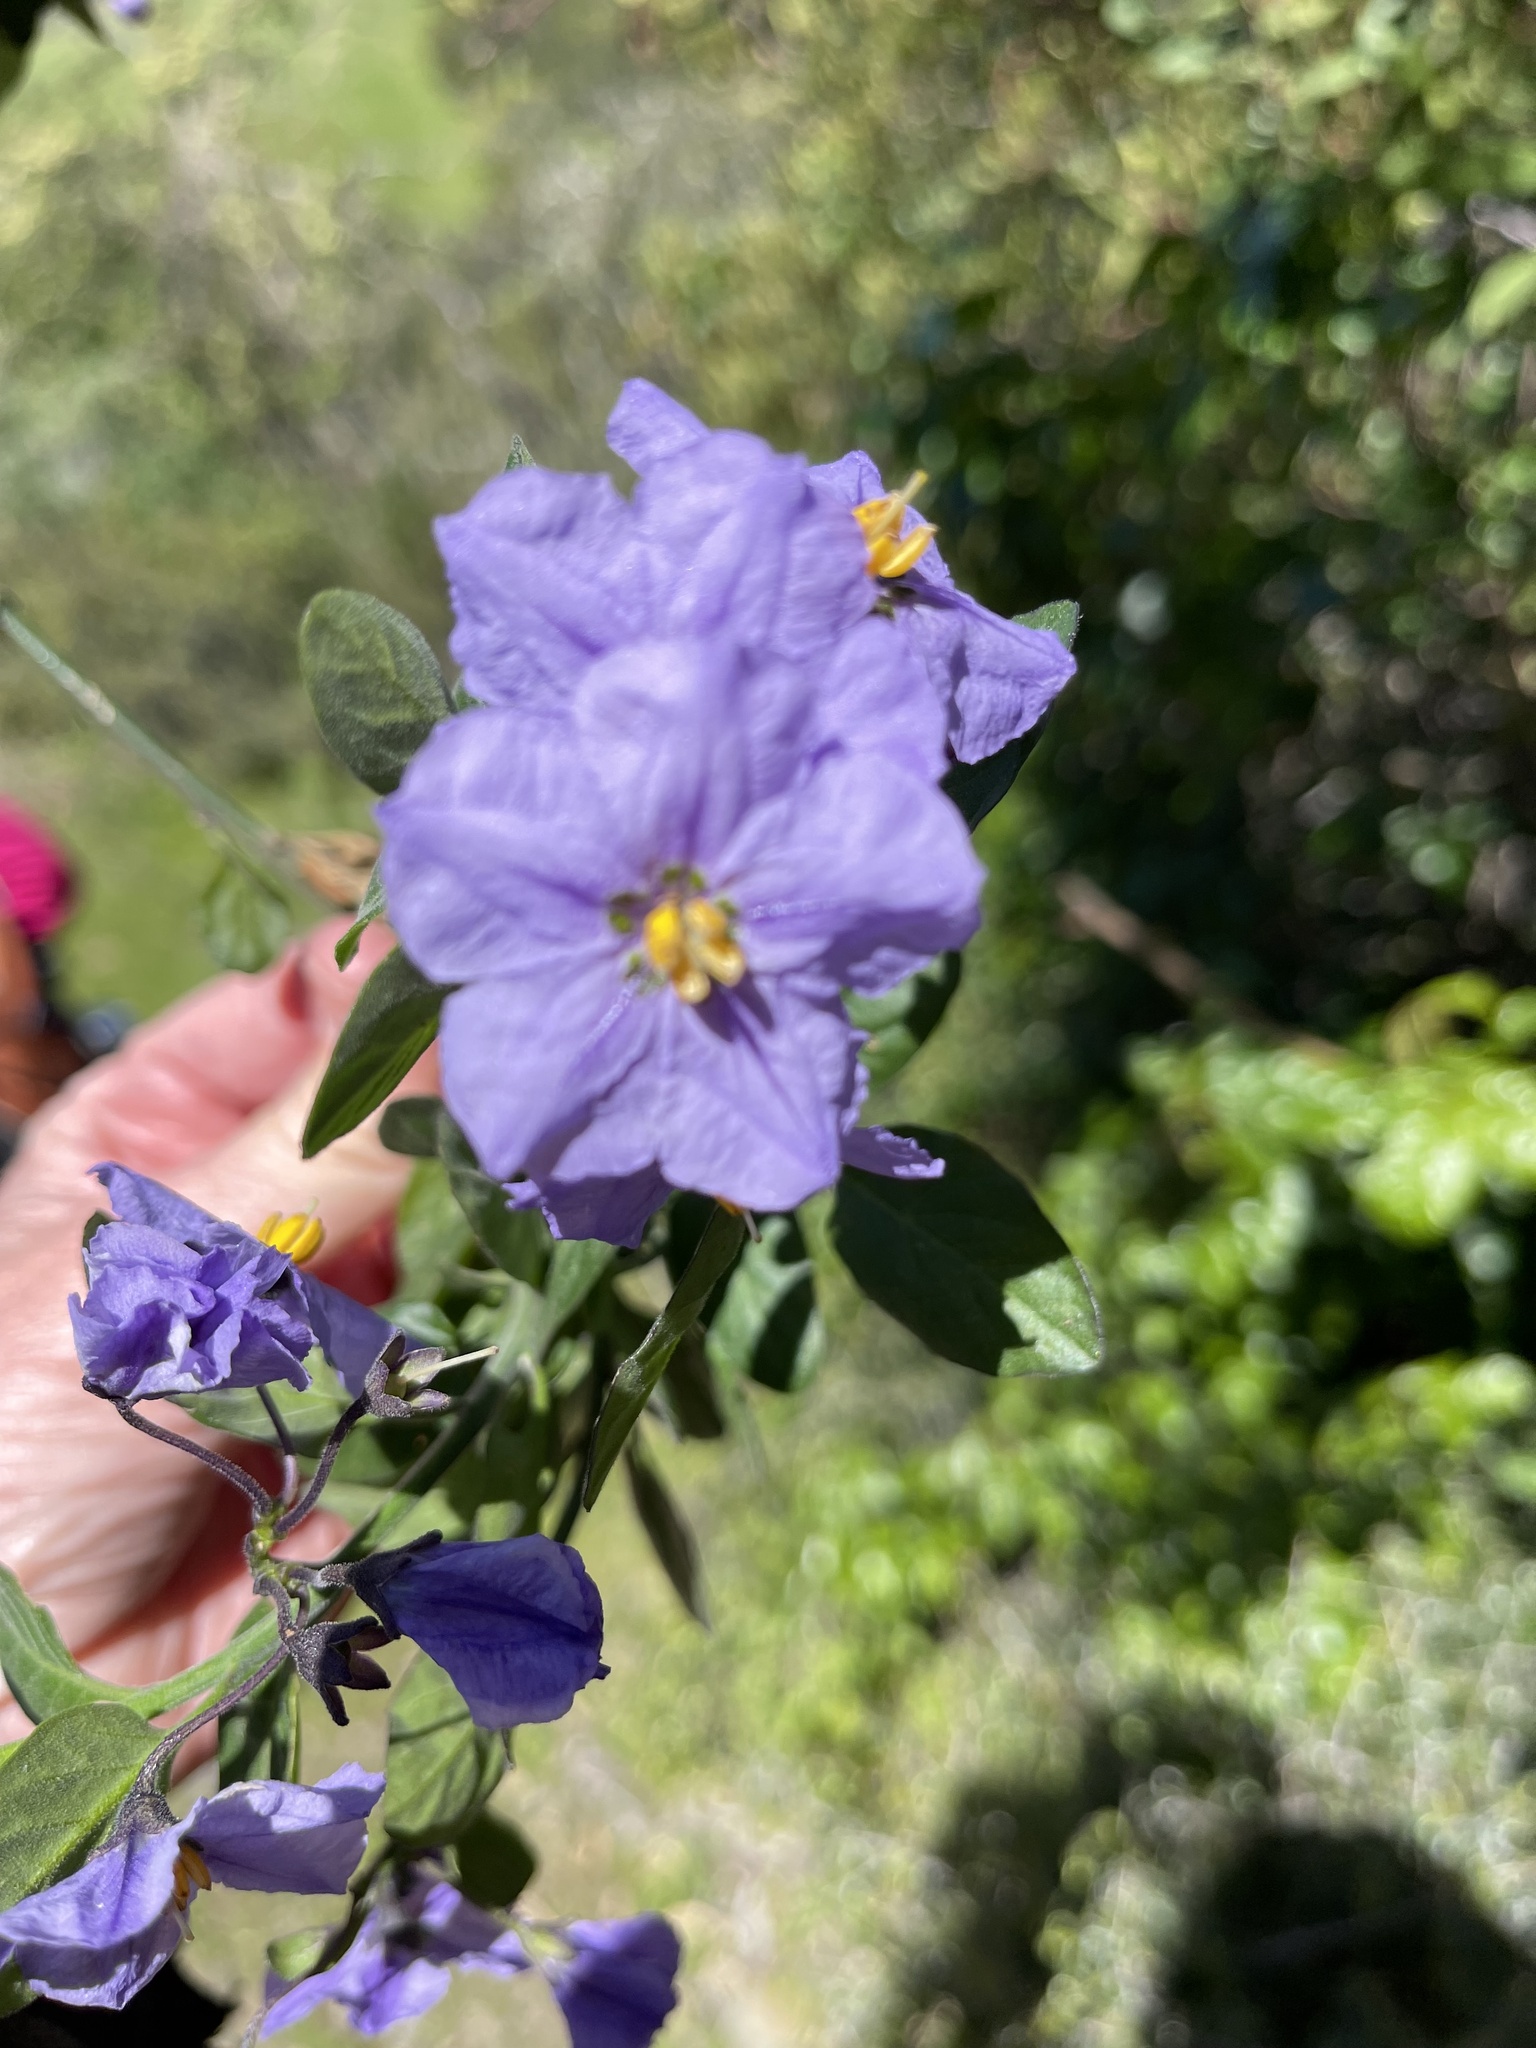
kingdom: Plantae
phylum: Tracheophyta
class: Magnoliopsida
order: Solanales
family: Solanaceae
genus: Solanum
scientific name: Solanum umbelliferum
